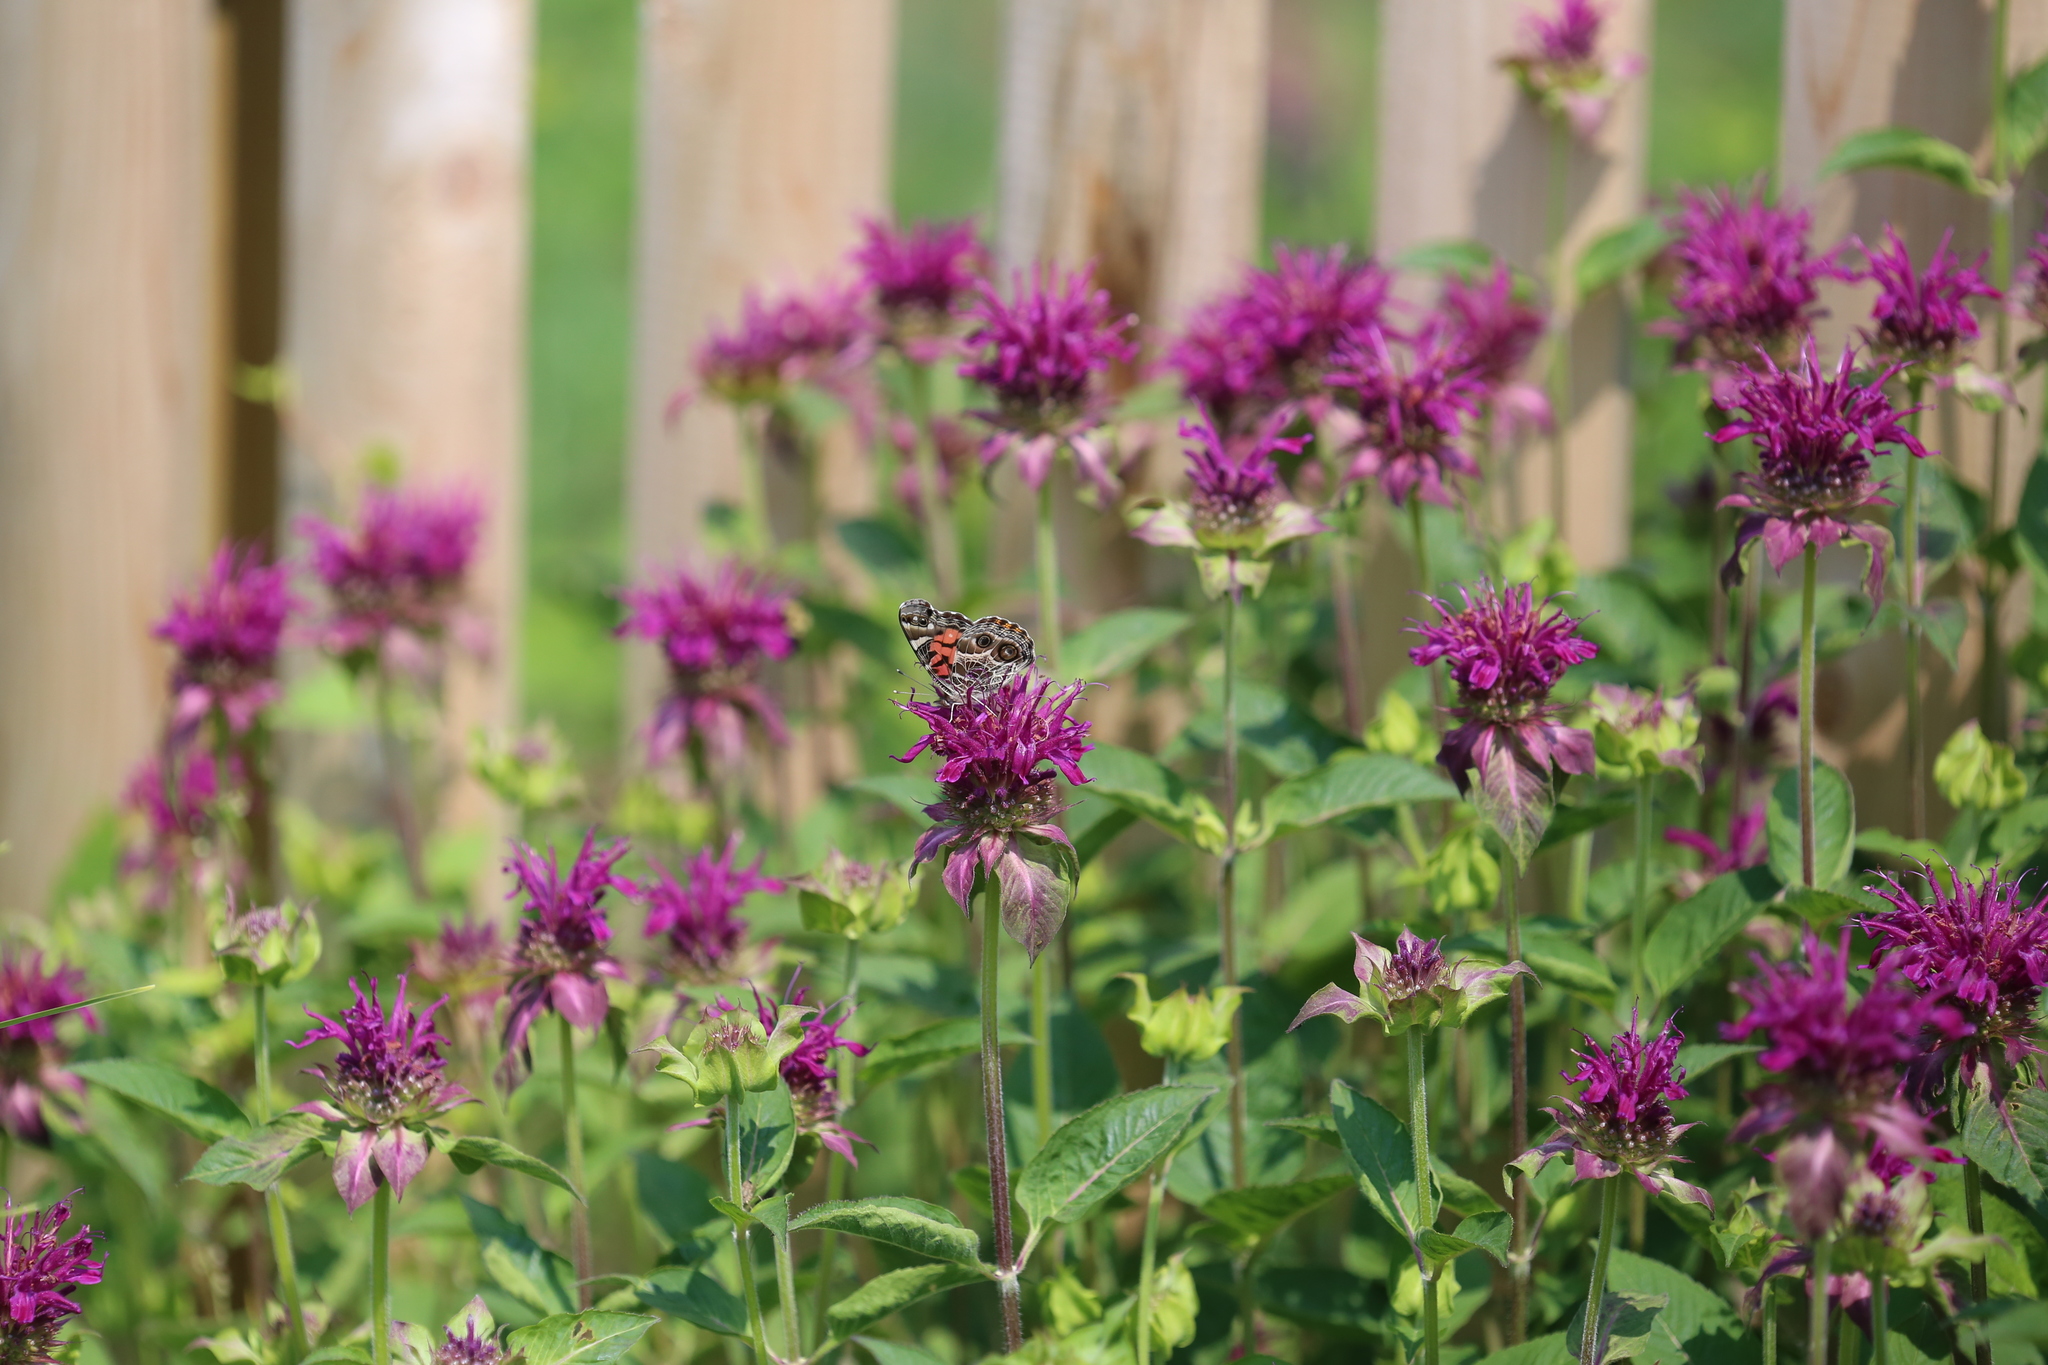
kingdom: Animalia
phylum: Arthropoda
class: Insecta
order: Lepidoptera
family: Nymphalidae
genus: Vanessa
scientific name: Vanessa virginiensis
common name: American lady
